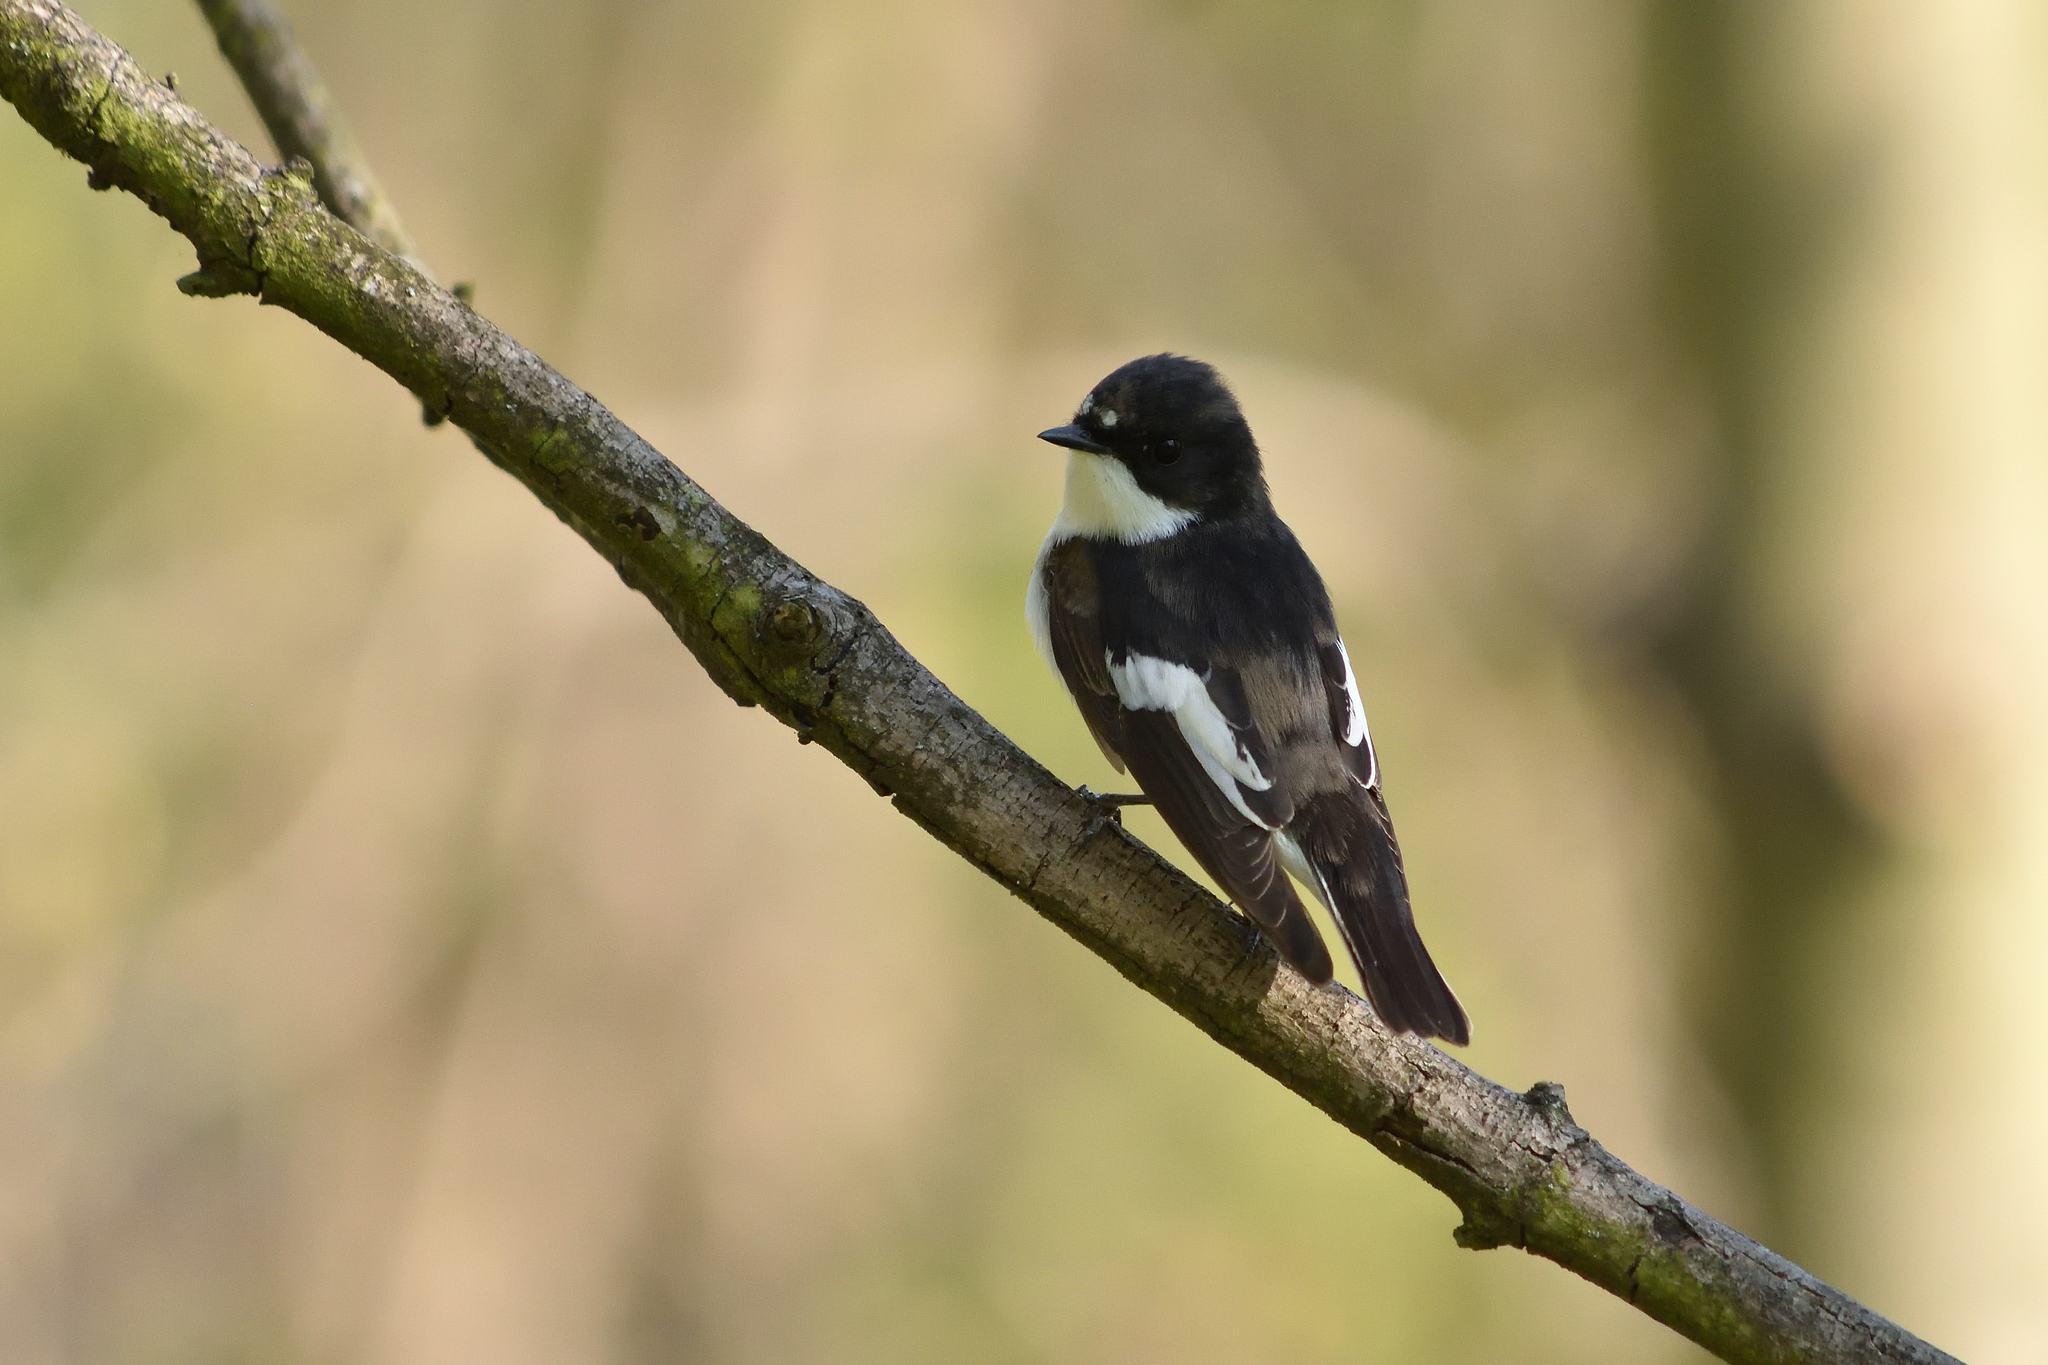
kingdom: Animalia
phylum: Chordata
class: Aves
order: Passeriformes
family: Muscicapidae
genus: Ficedula
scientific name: Ficedula hypoleuca
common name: European pied flycatcher
